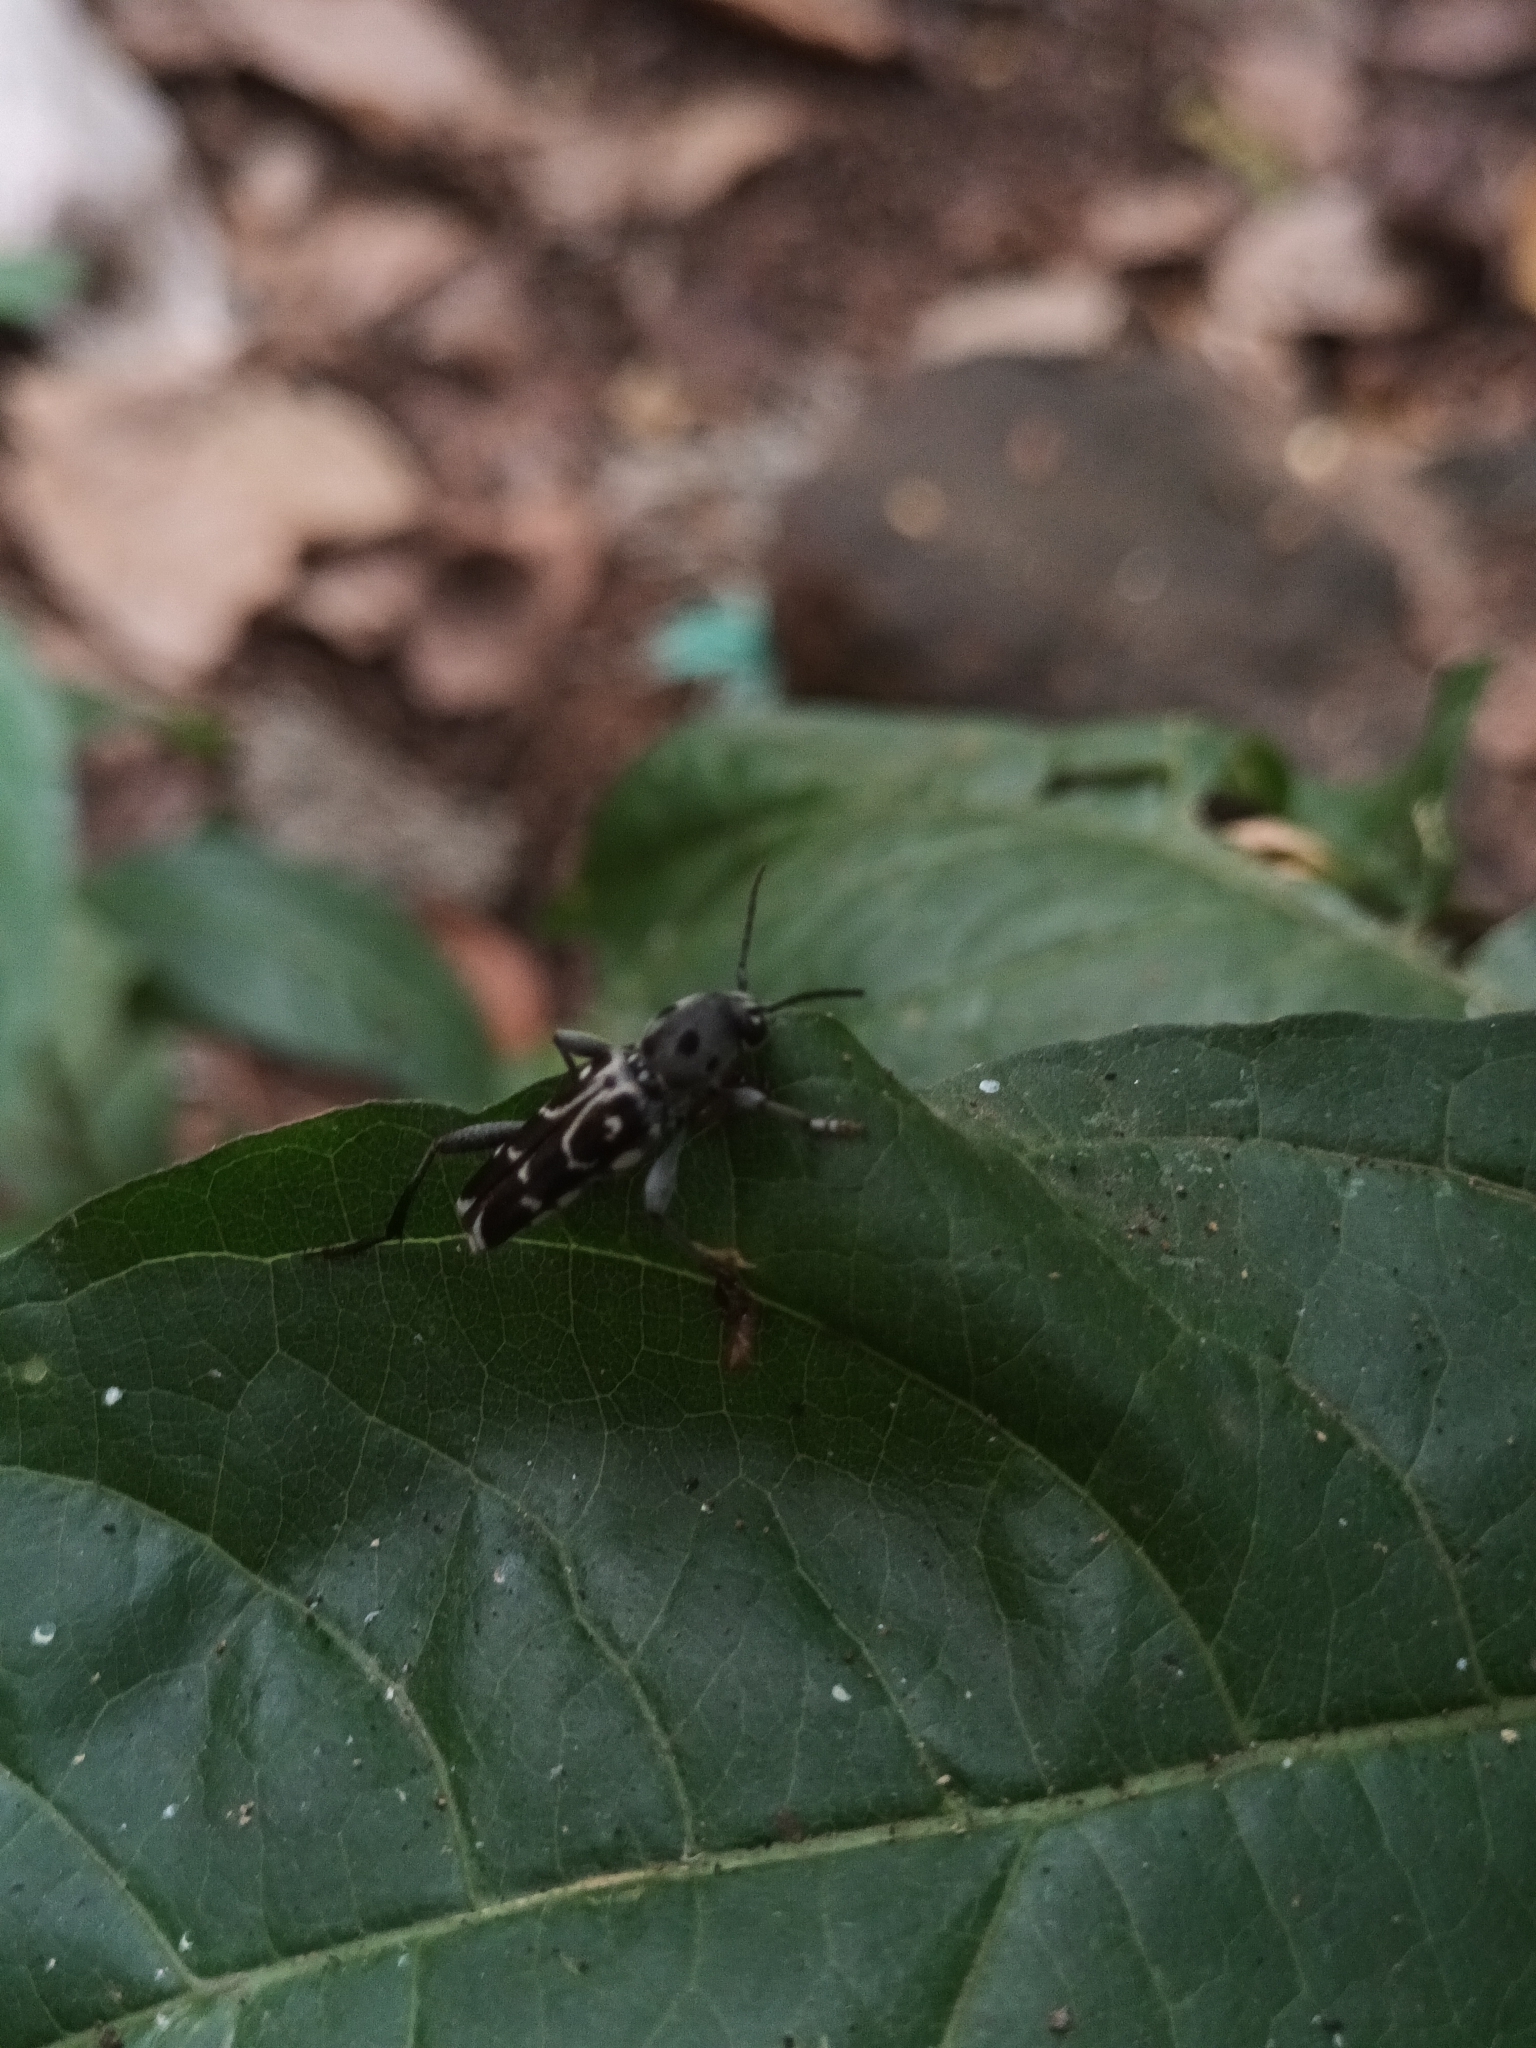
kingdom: Animalia
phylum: Arthropoda
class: Insecta
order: Coleoptera
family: Cerambycidae
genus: Xylotrechus
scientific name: Xylotrechus smei
